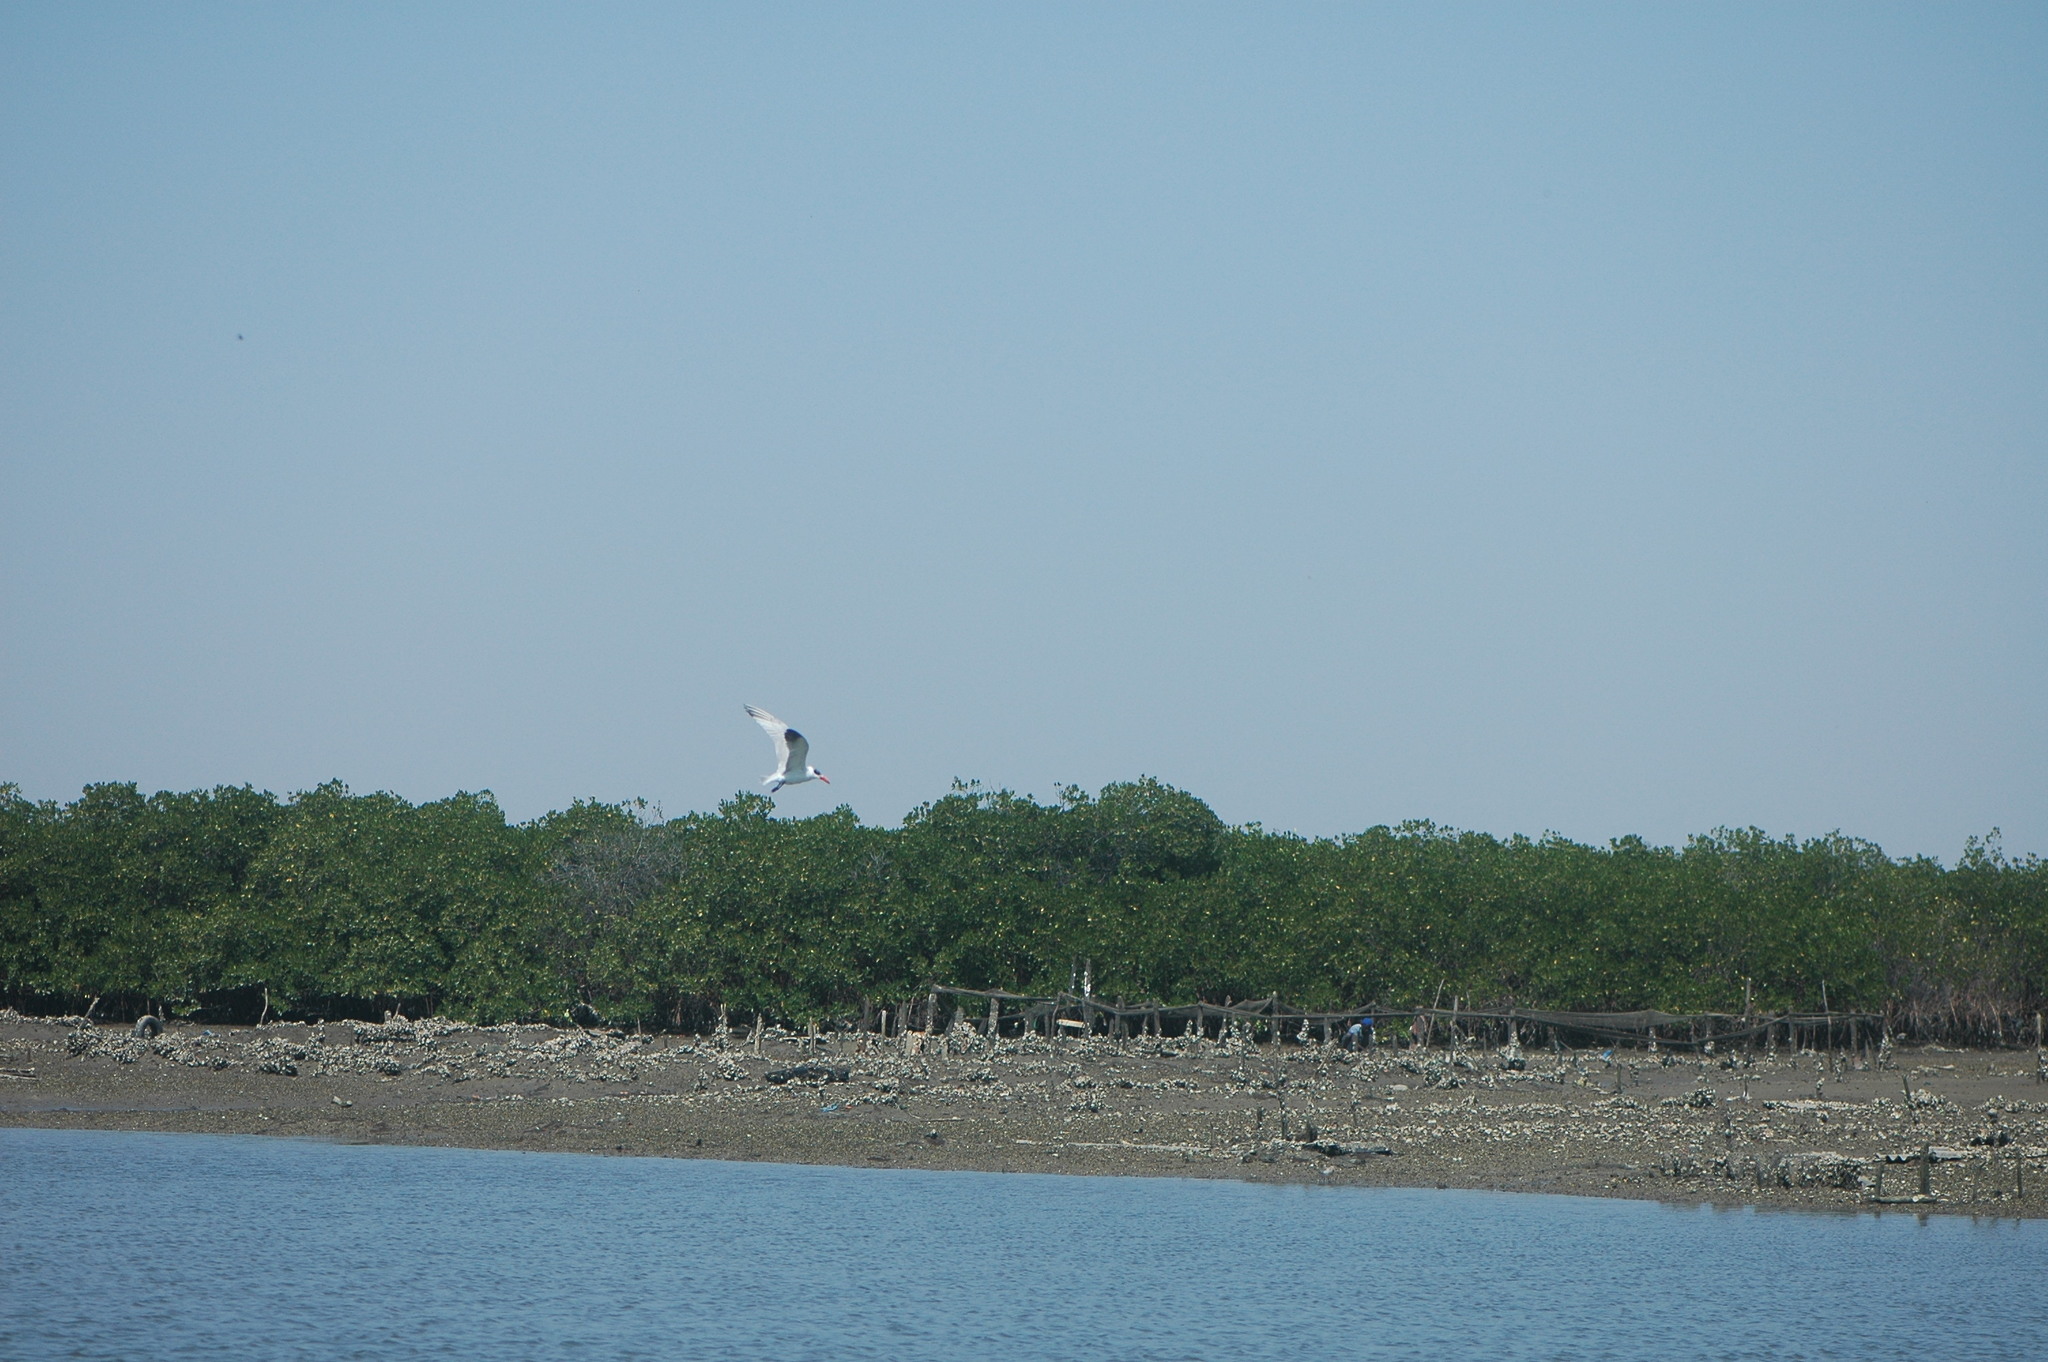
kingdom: Animalia
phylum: Chordata
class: Aves
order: Charadriiformes
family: Laridae
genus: Hydroprogne
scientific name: Hydroprogne caspia
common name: Caspian tern
